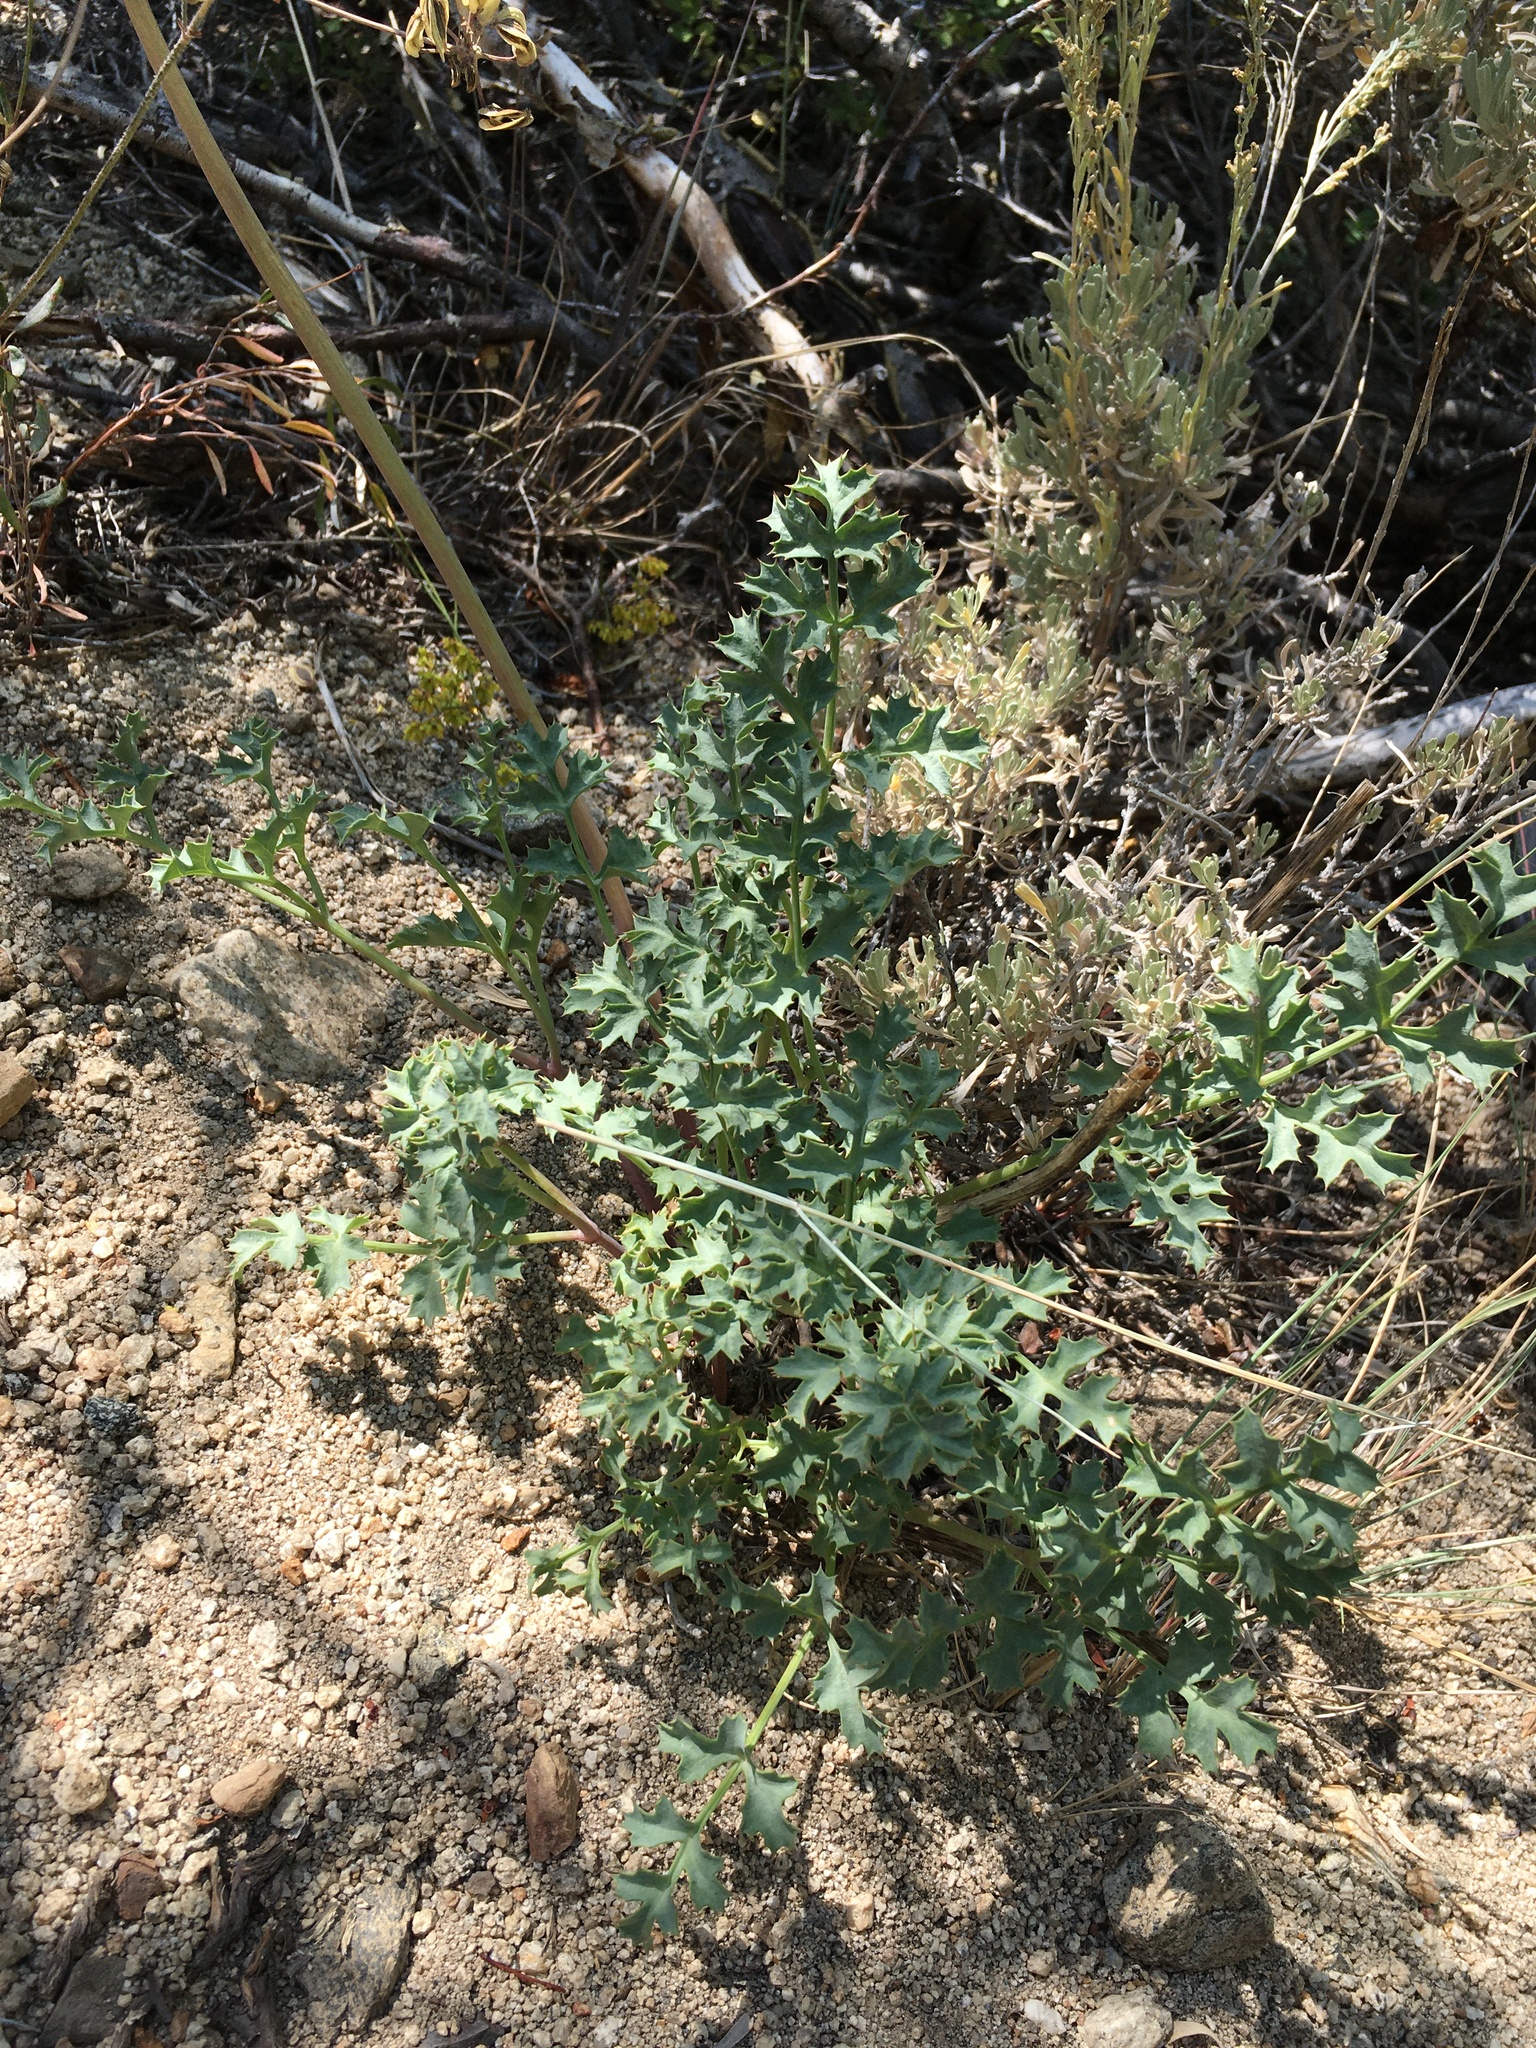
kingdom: Plantae
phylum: Tracheophyta
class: Magnoliopsida
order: Apiales
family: Apiaceae
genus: Lomatium
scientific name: Lomatium rigidum
